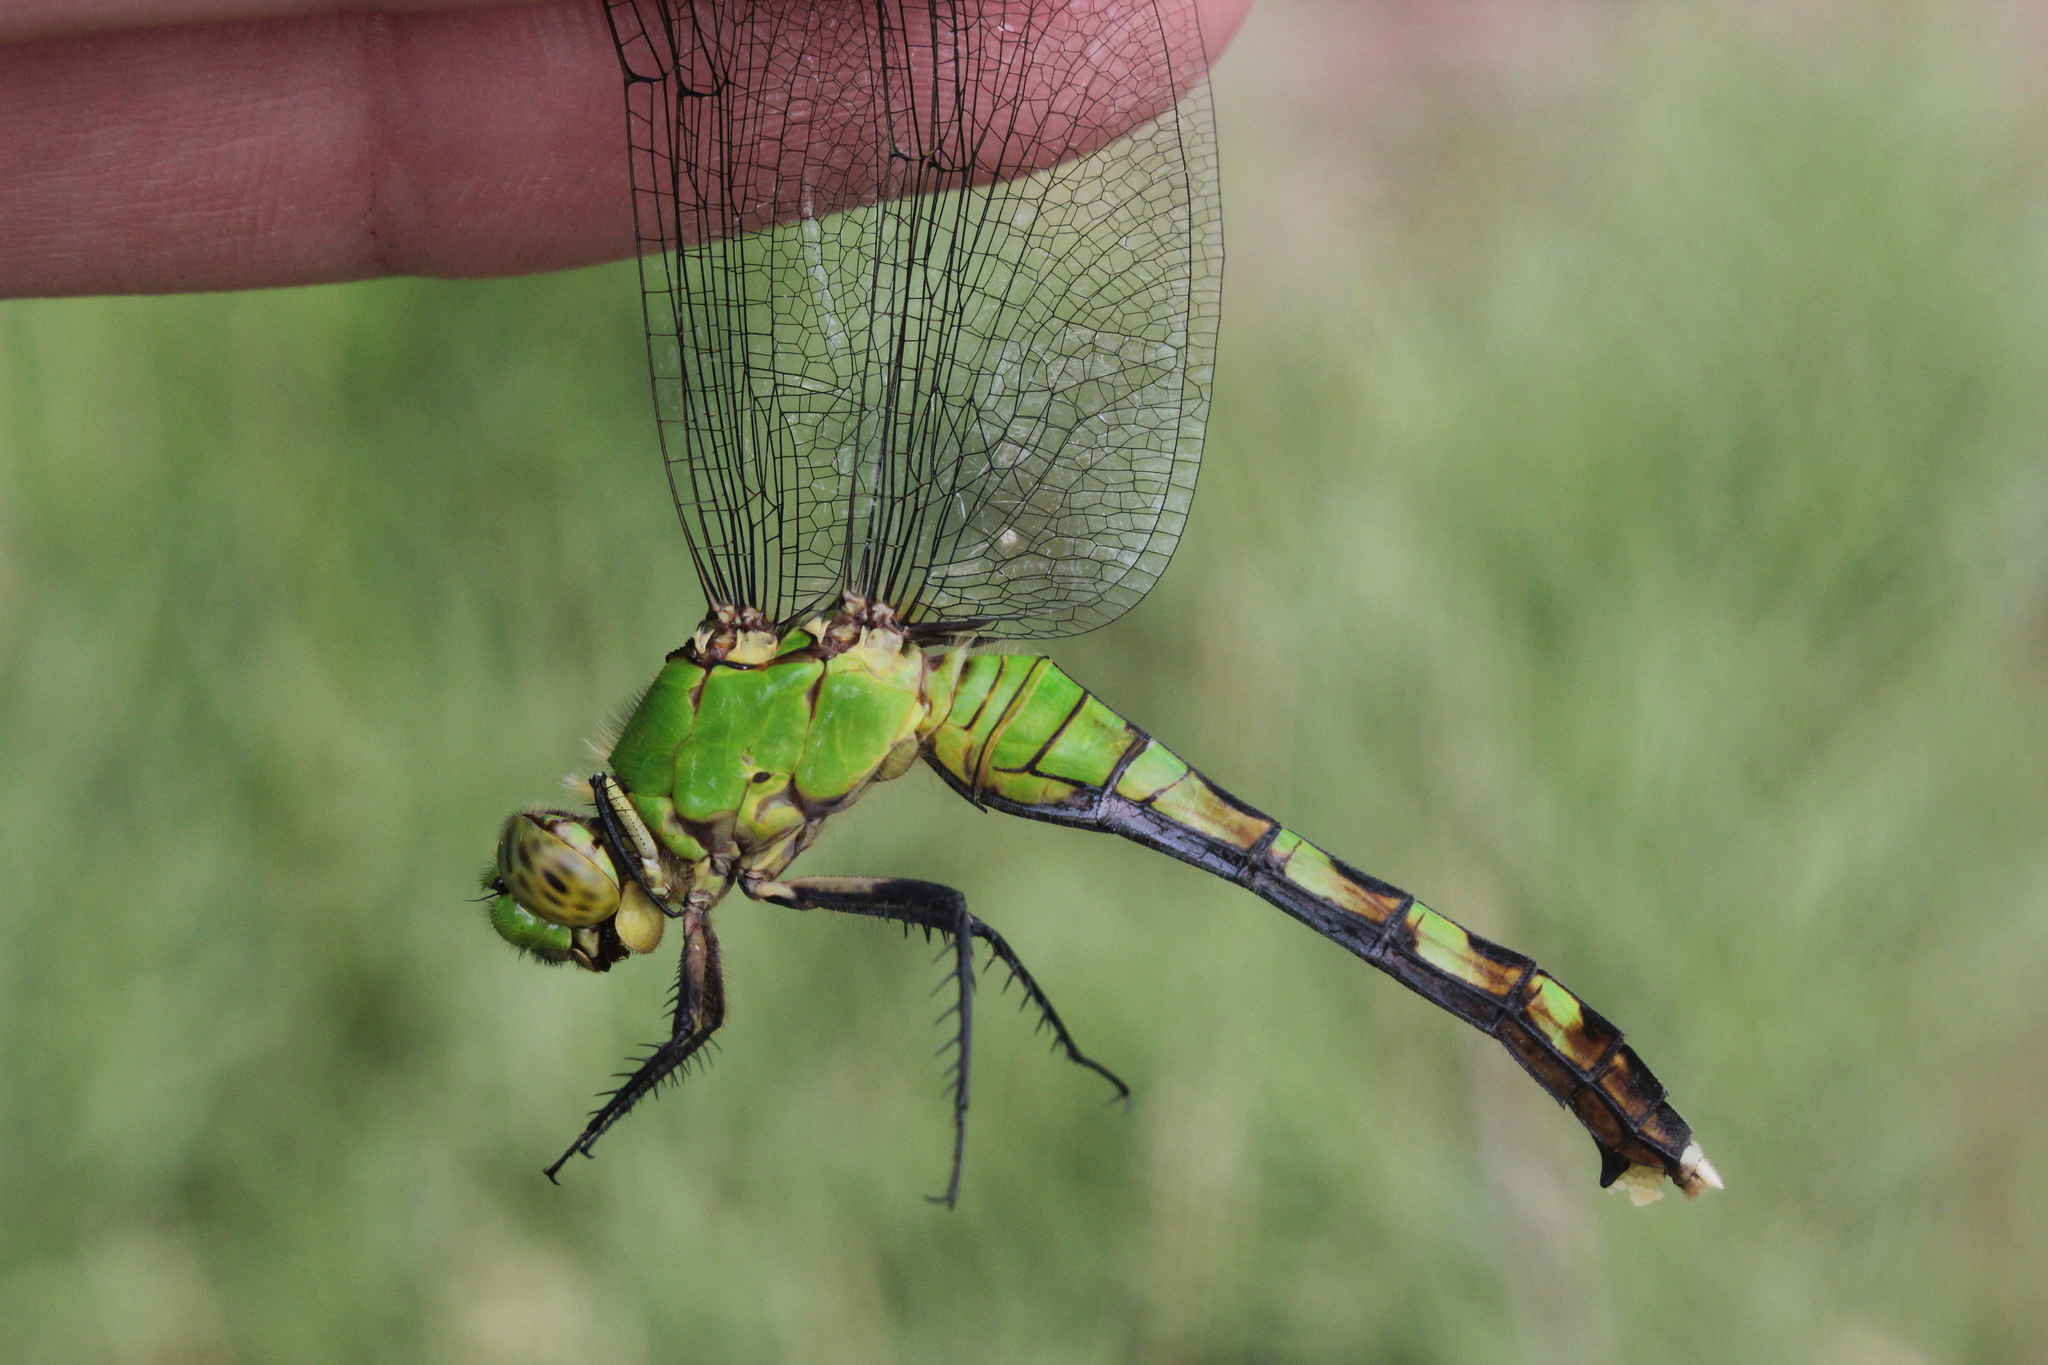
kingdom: Animalia
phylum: Arthropoda
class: Insecta
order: Odonata
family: Libellulidae
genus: Erythemis
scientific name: Erythemis simplicicollis
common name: Eastern pondhawk
